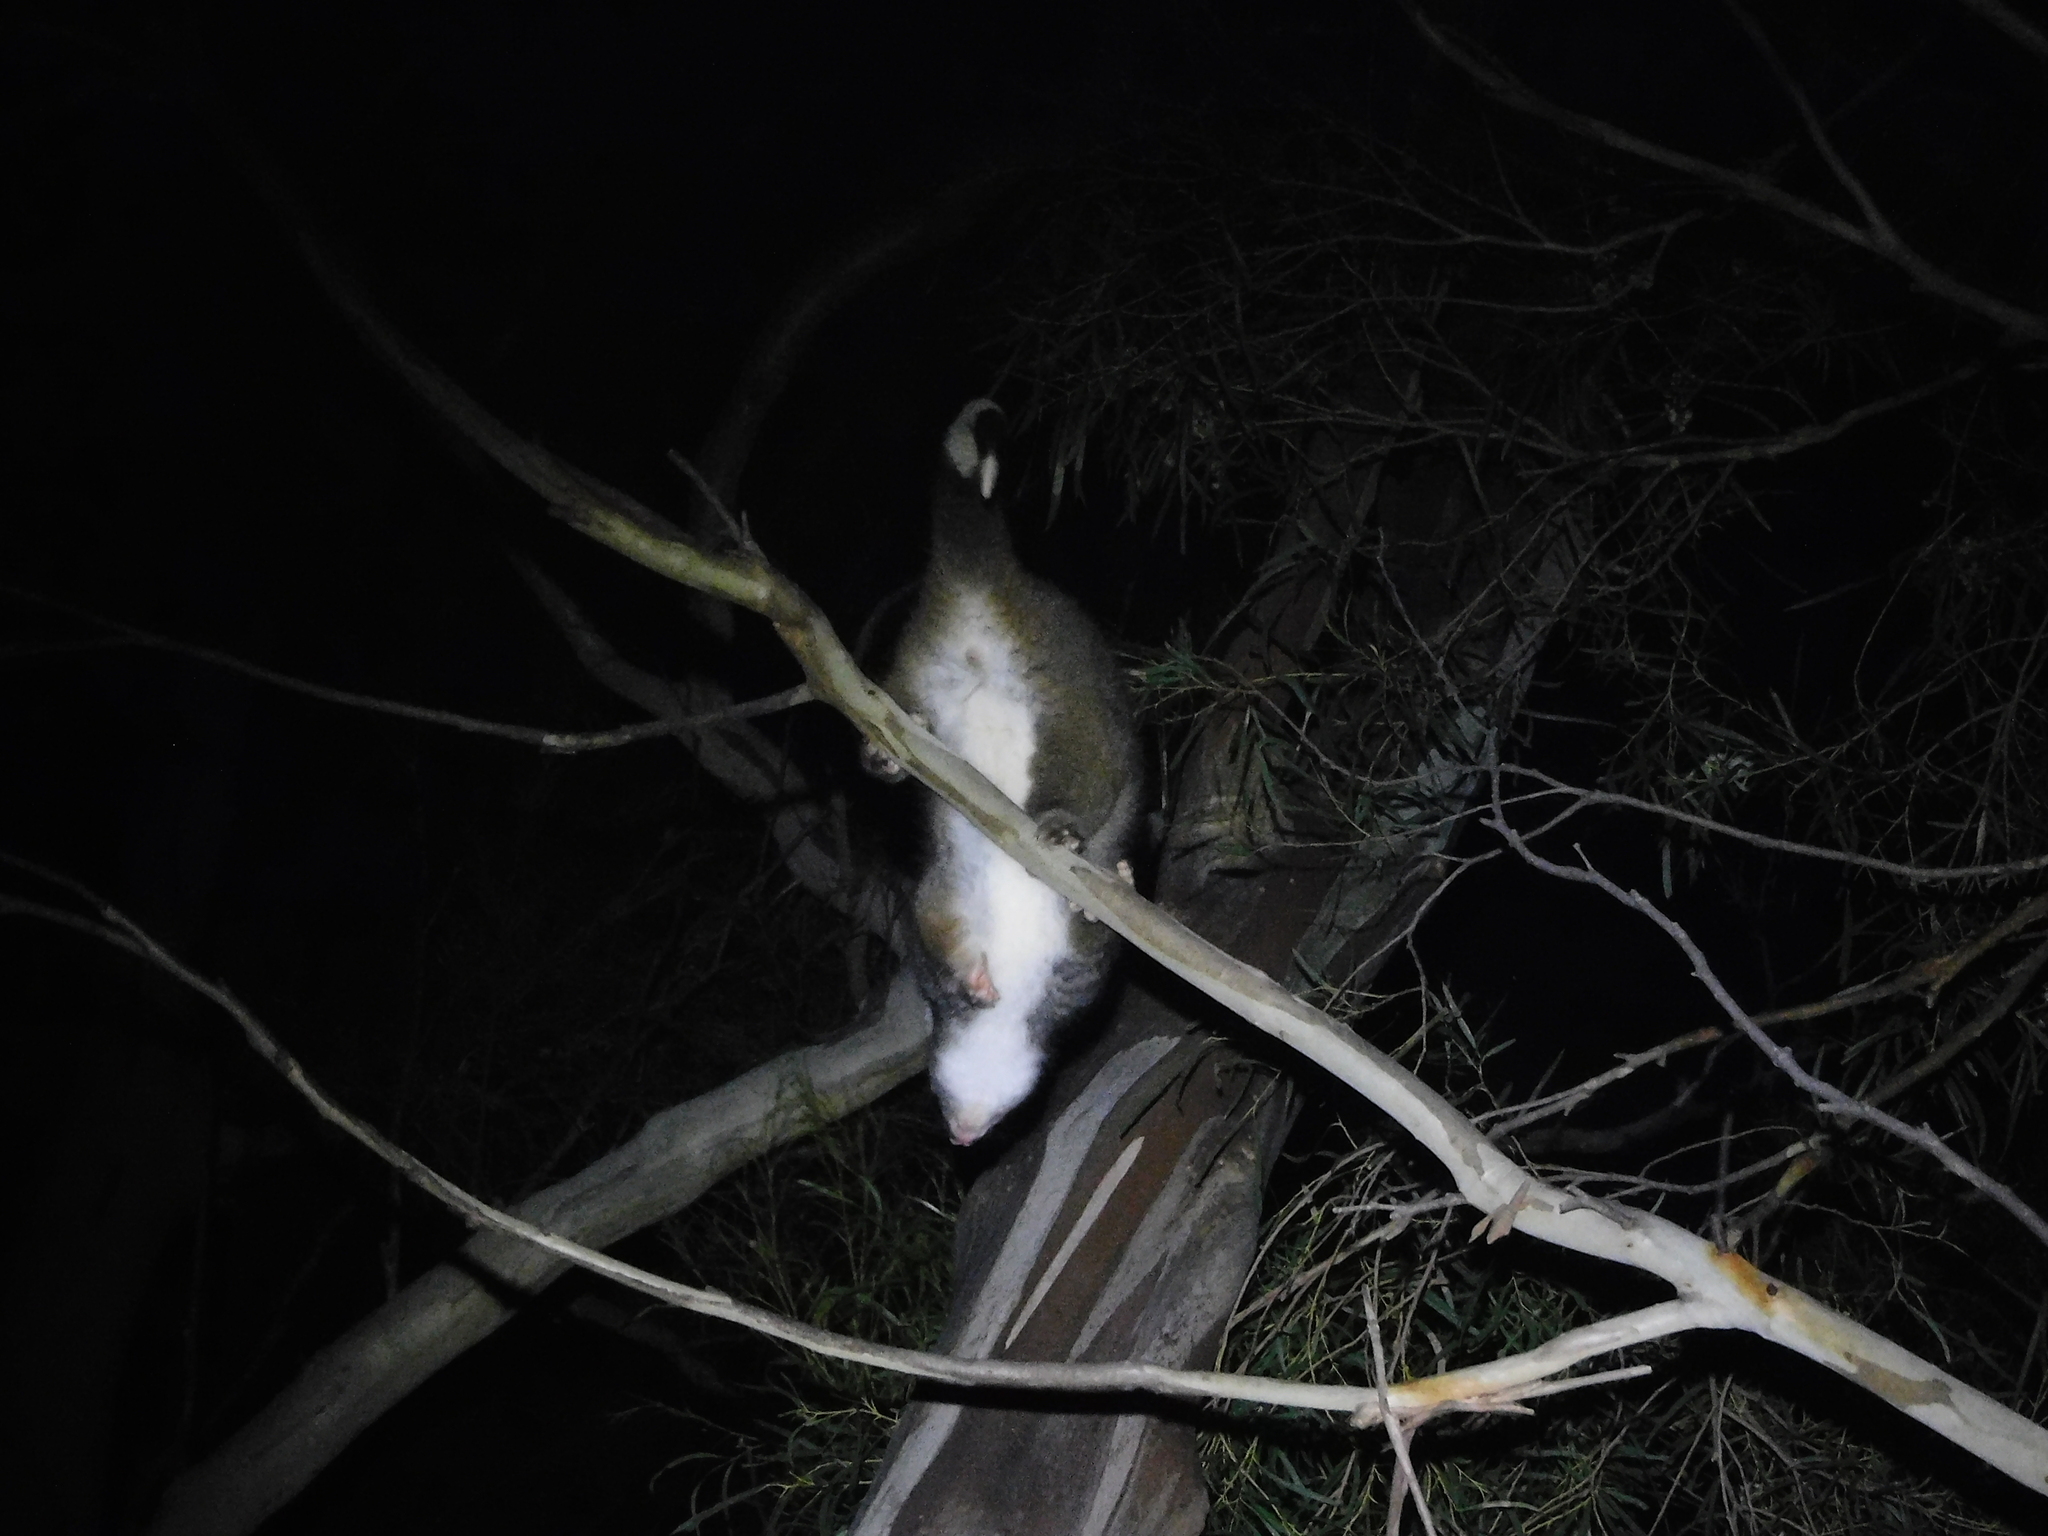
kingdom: Animalia
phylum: Chordata
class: Mammalia
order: Diprotodontia
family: Pseudocheiridae
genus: Pseudocheirus
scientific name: Pseudocheirus peregrinus
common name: Common ringtail possum
